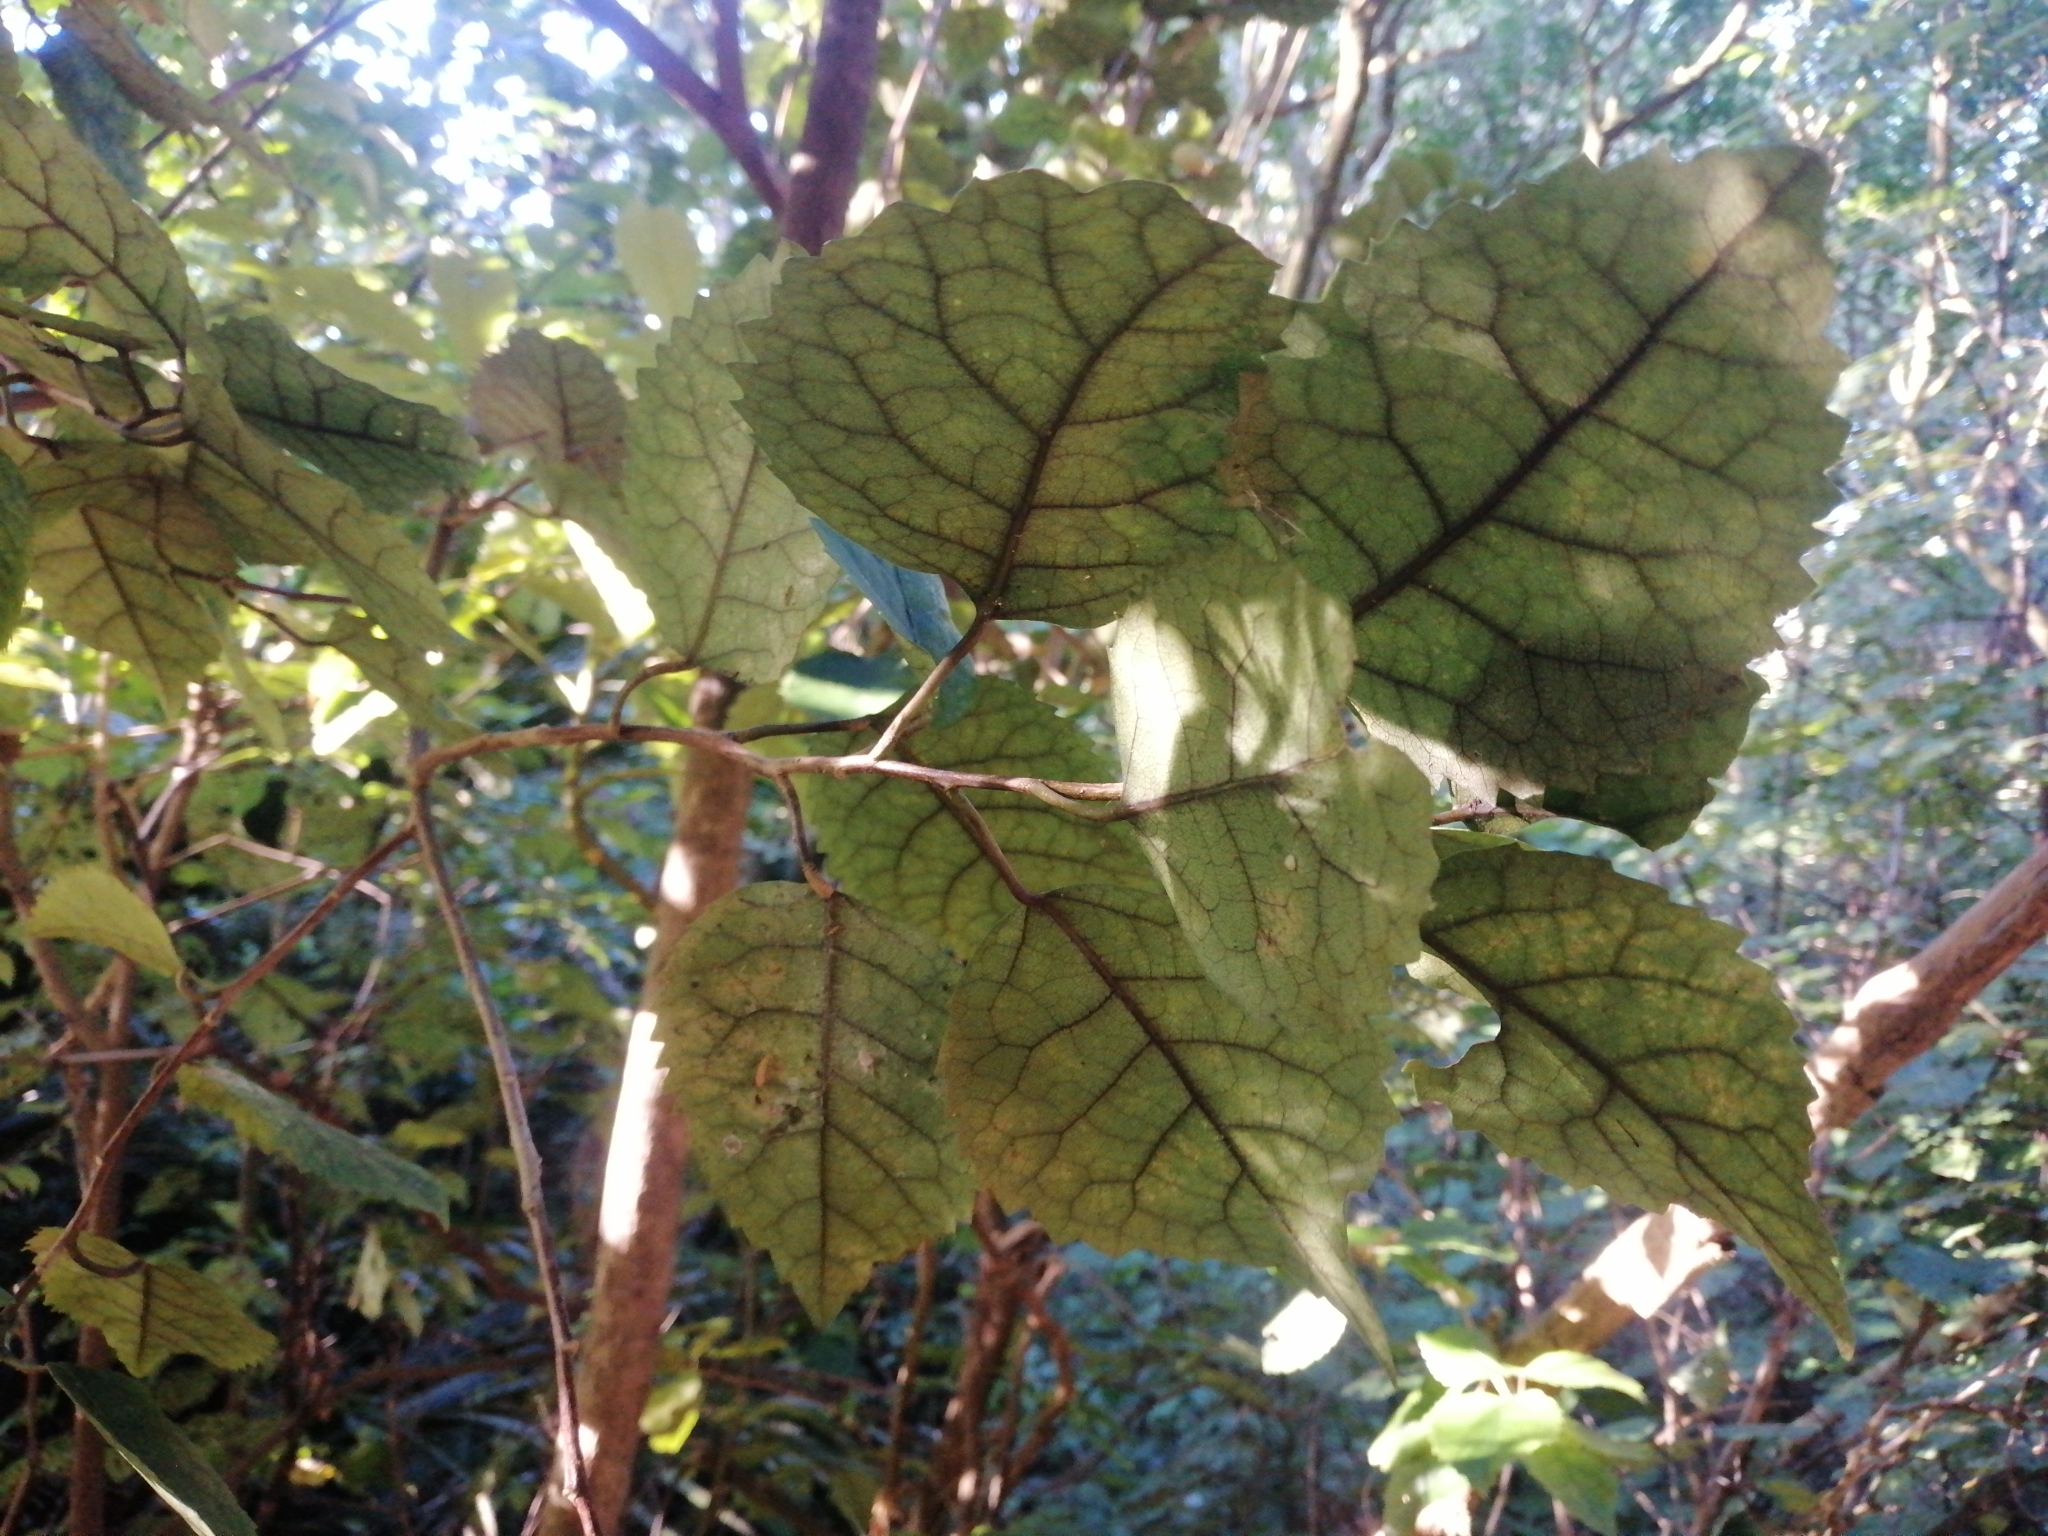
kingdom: Plantae
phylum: Tracheophyta
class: Magnoliopsida
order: Malvales
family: Malvaceae
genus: Hoheria
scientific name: Hoheria populnea
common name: Lacebark
